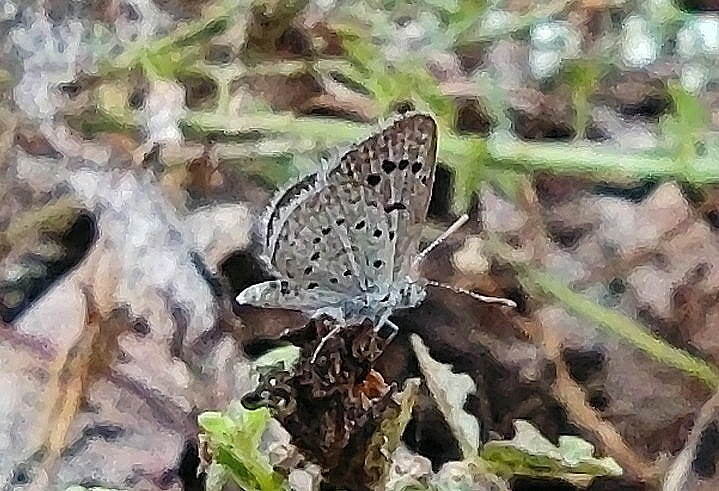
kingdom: Animalia
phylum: Arthropoda
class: Insecta
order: Lepidoptera
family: Lycaenidae
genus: Zizeeria
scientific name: Zizeeria karsandra
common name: Dark grass blue
